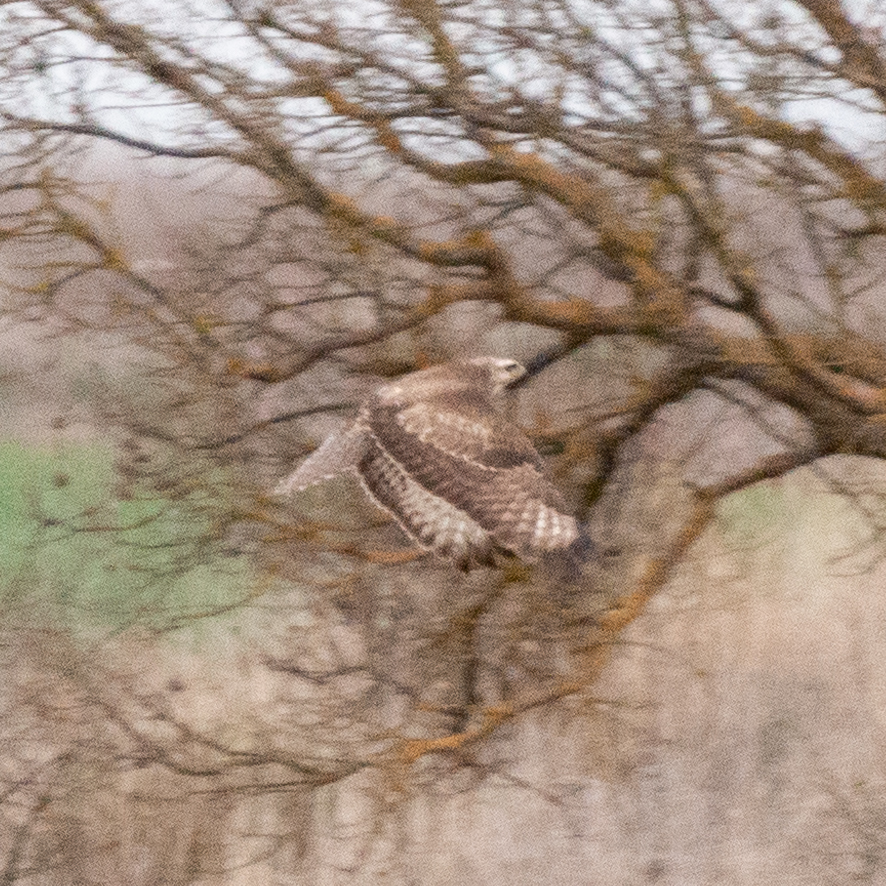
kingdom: Animalia
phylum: Chordata
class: Aves
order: Accipitriformes
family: Accipitridae
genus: Buteo
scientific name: Buteo buteo
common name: Common buzzard
